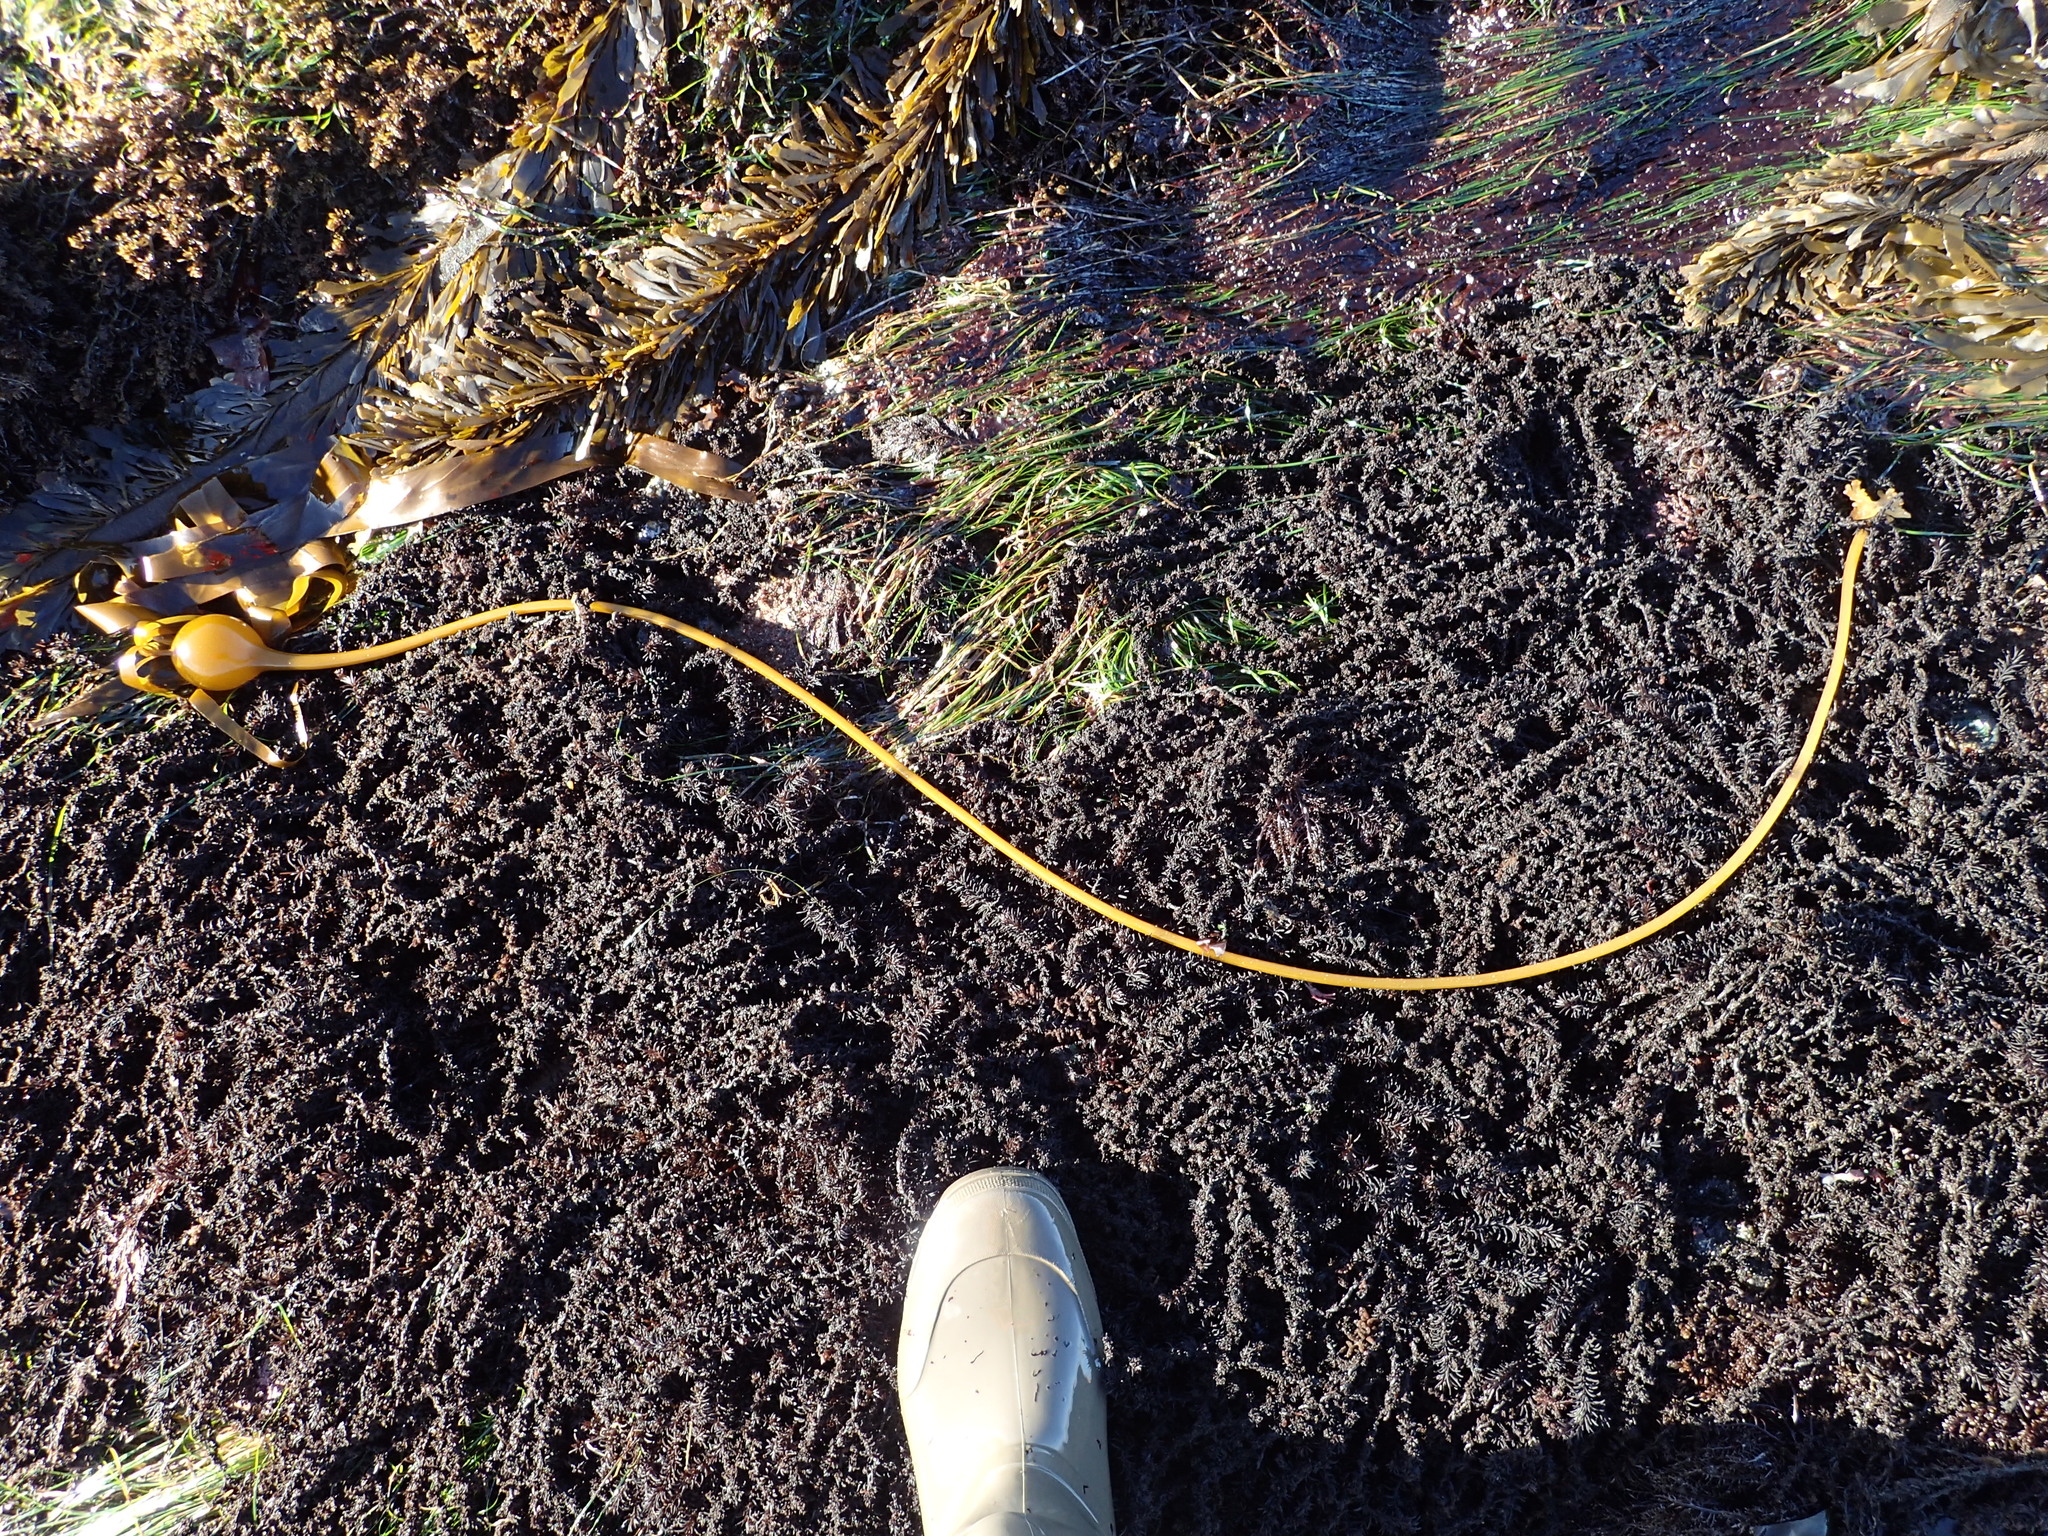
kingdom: Chromista
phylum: Ochrophyta
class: Phaeophyceae
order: Laminariales
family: Laminariaceae
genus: Nereocystis
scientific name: Nereocystis luetkeana
